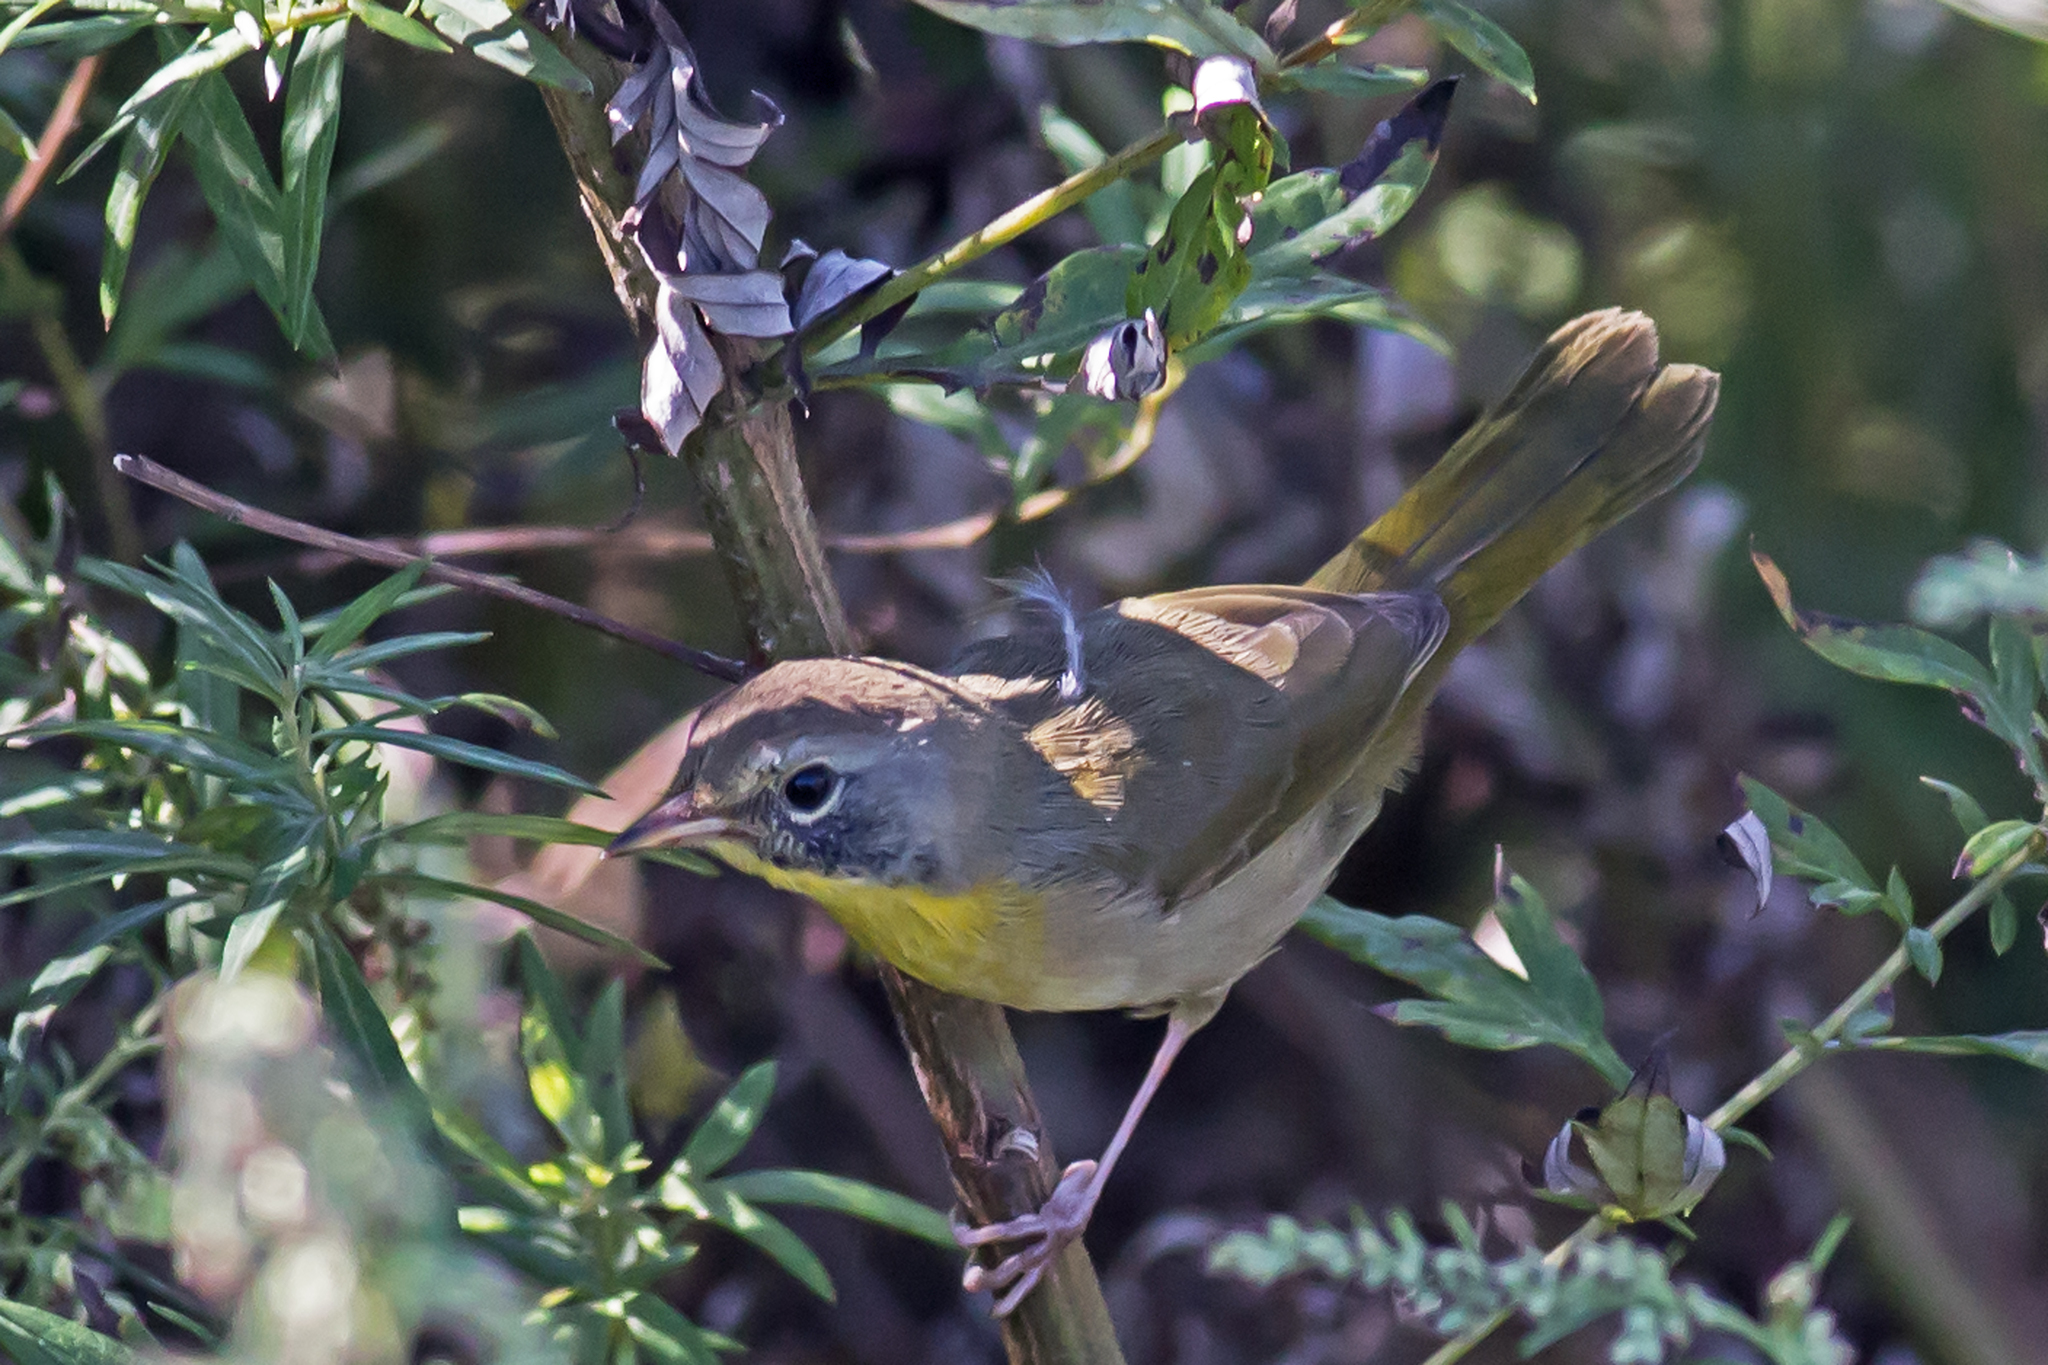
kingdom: Animalia
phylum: Chordata
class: Aves
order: Passeriformes
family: Parulidae
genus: Geothlypis
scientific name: Geothlypis trichas
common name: Common yellowthroat
